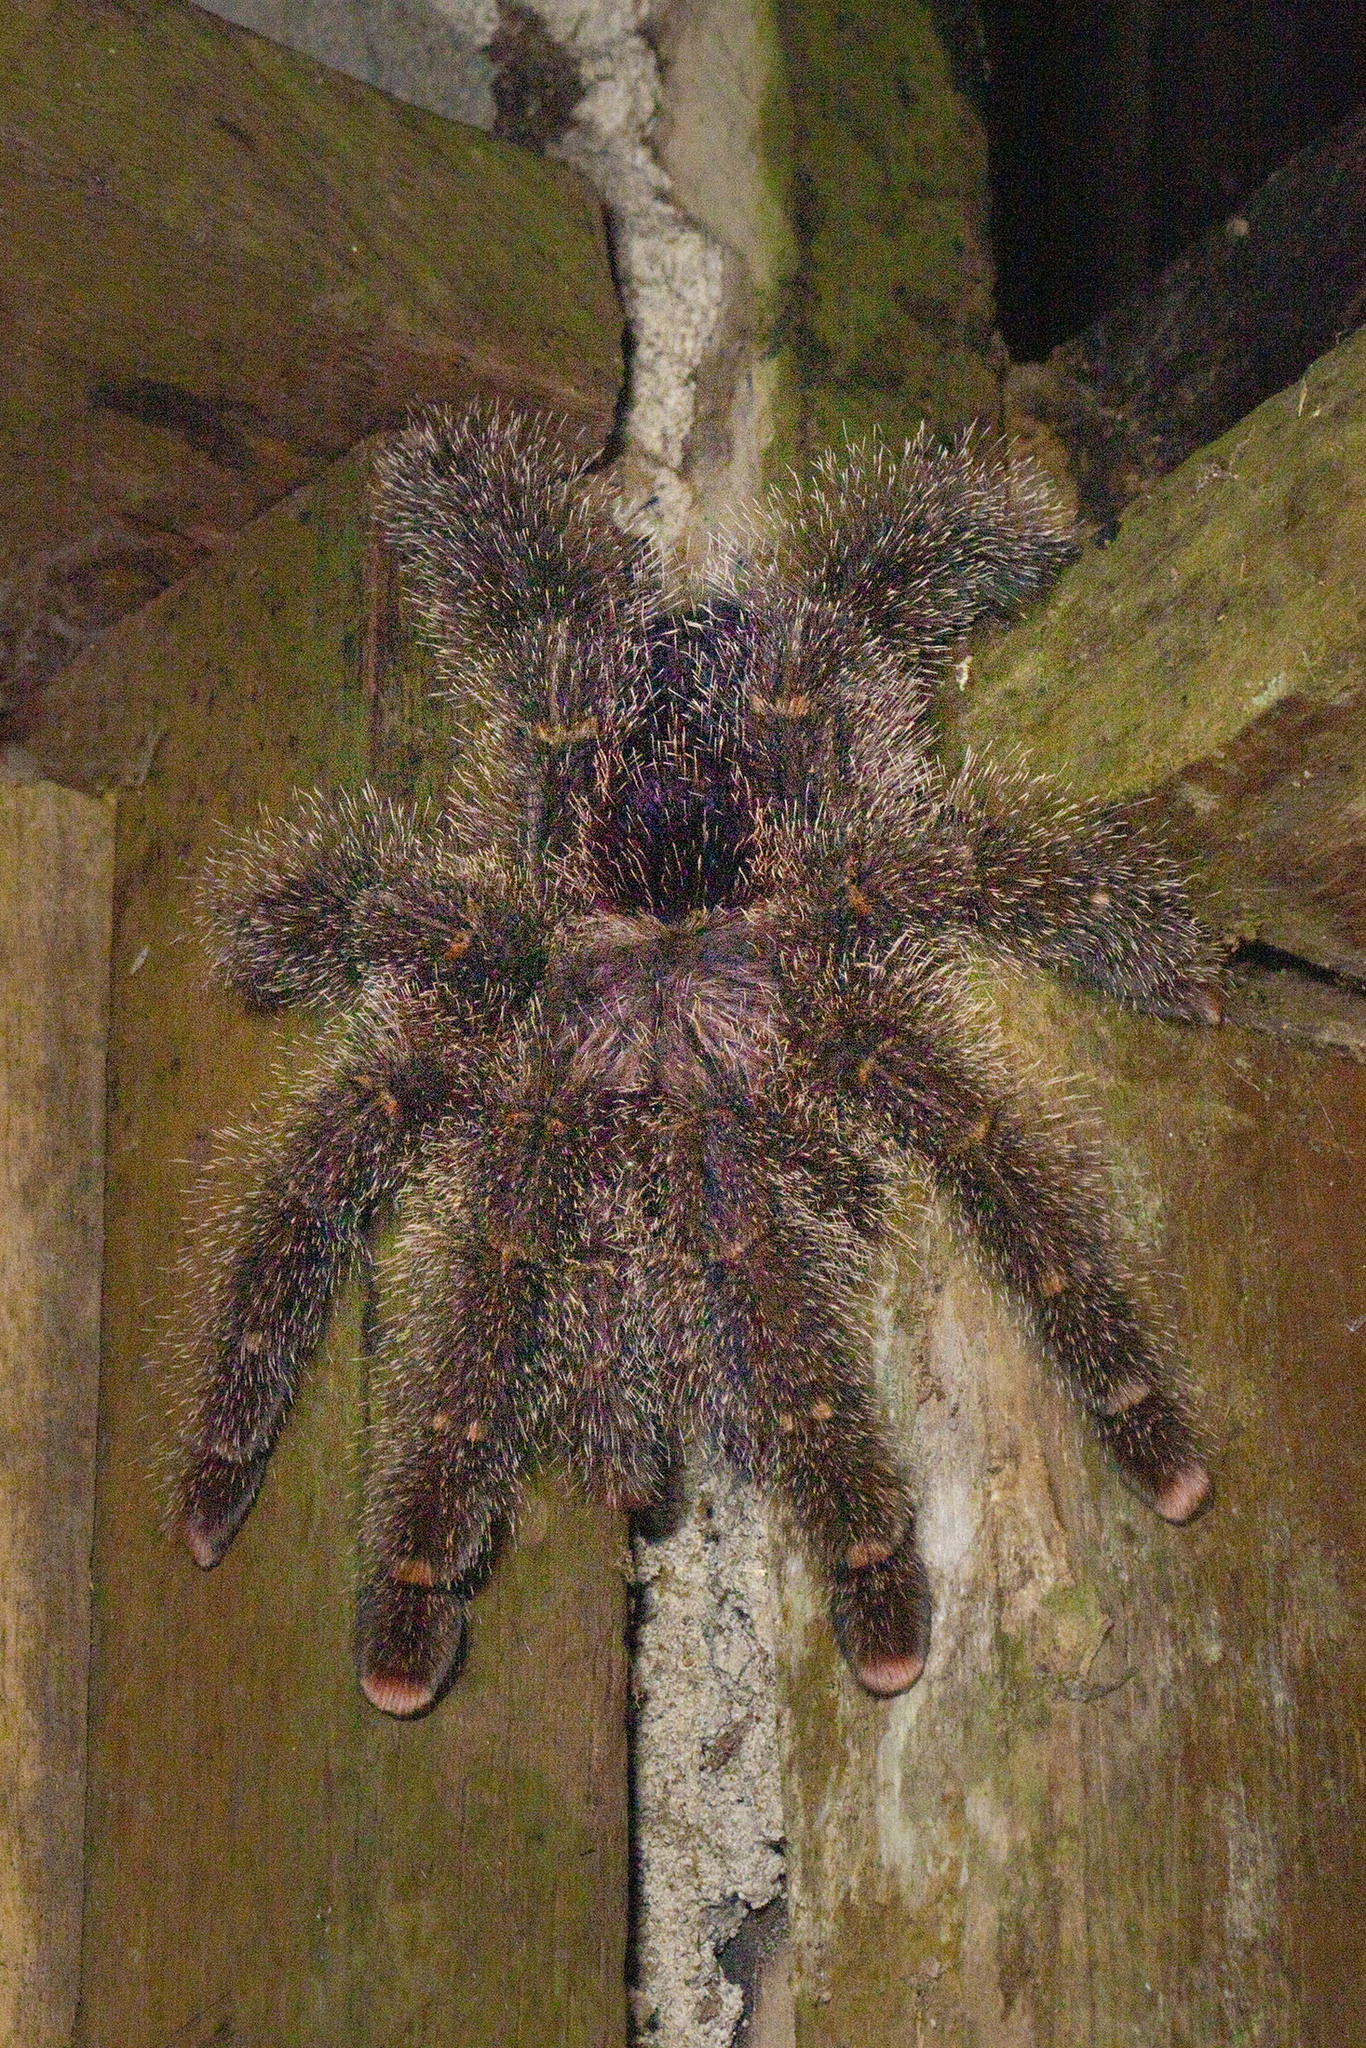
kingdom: Animalia
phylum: Arthropoda
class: Arachnida
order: Araneae
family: Theraphosidae
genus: Avicularia
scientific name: Avicularia juruensis
